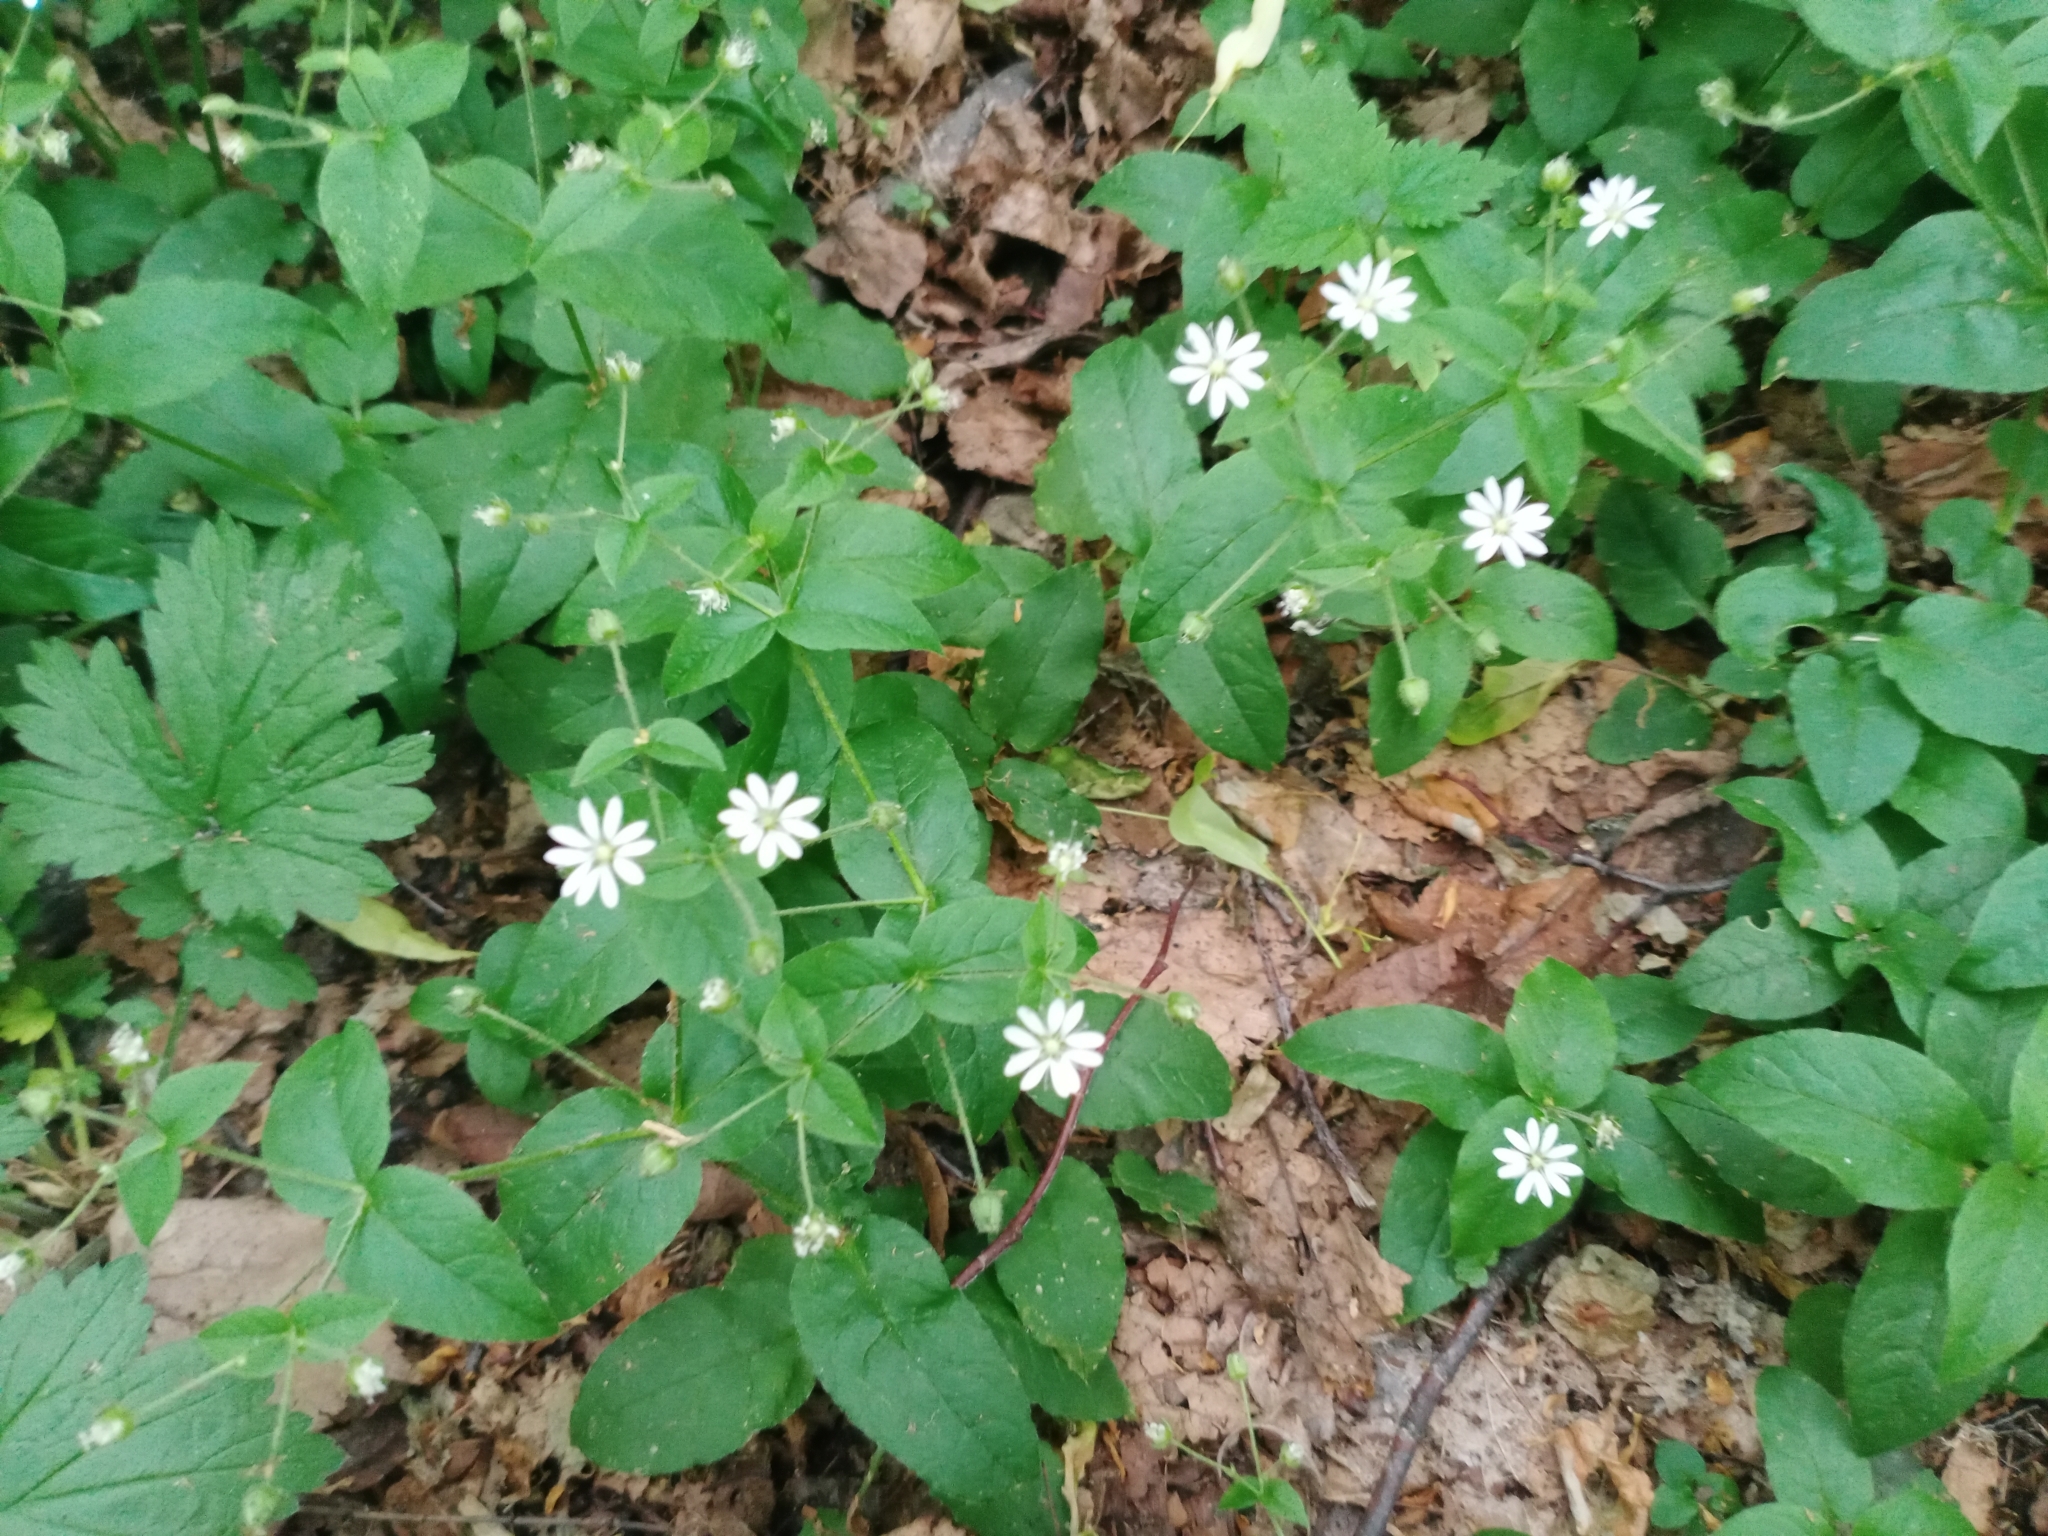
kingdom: Plantae
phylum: Tracheophyta
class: Magnoliopsida
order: Caryophyllales
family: Caryophyllaceae
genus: Stellaria
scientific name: Stellaria bungeana
